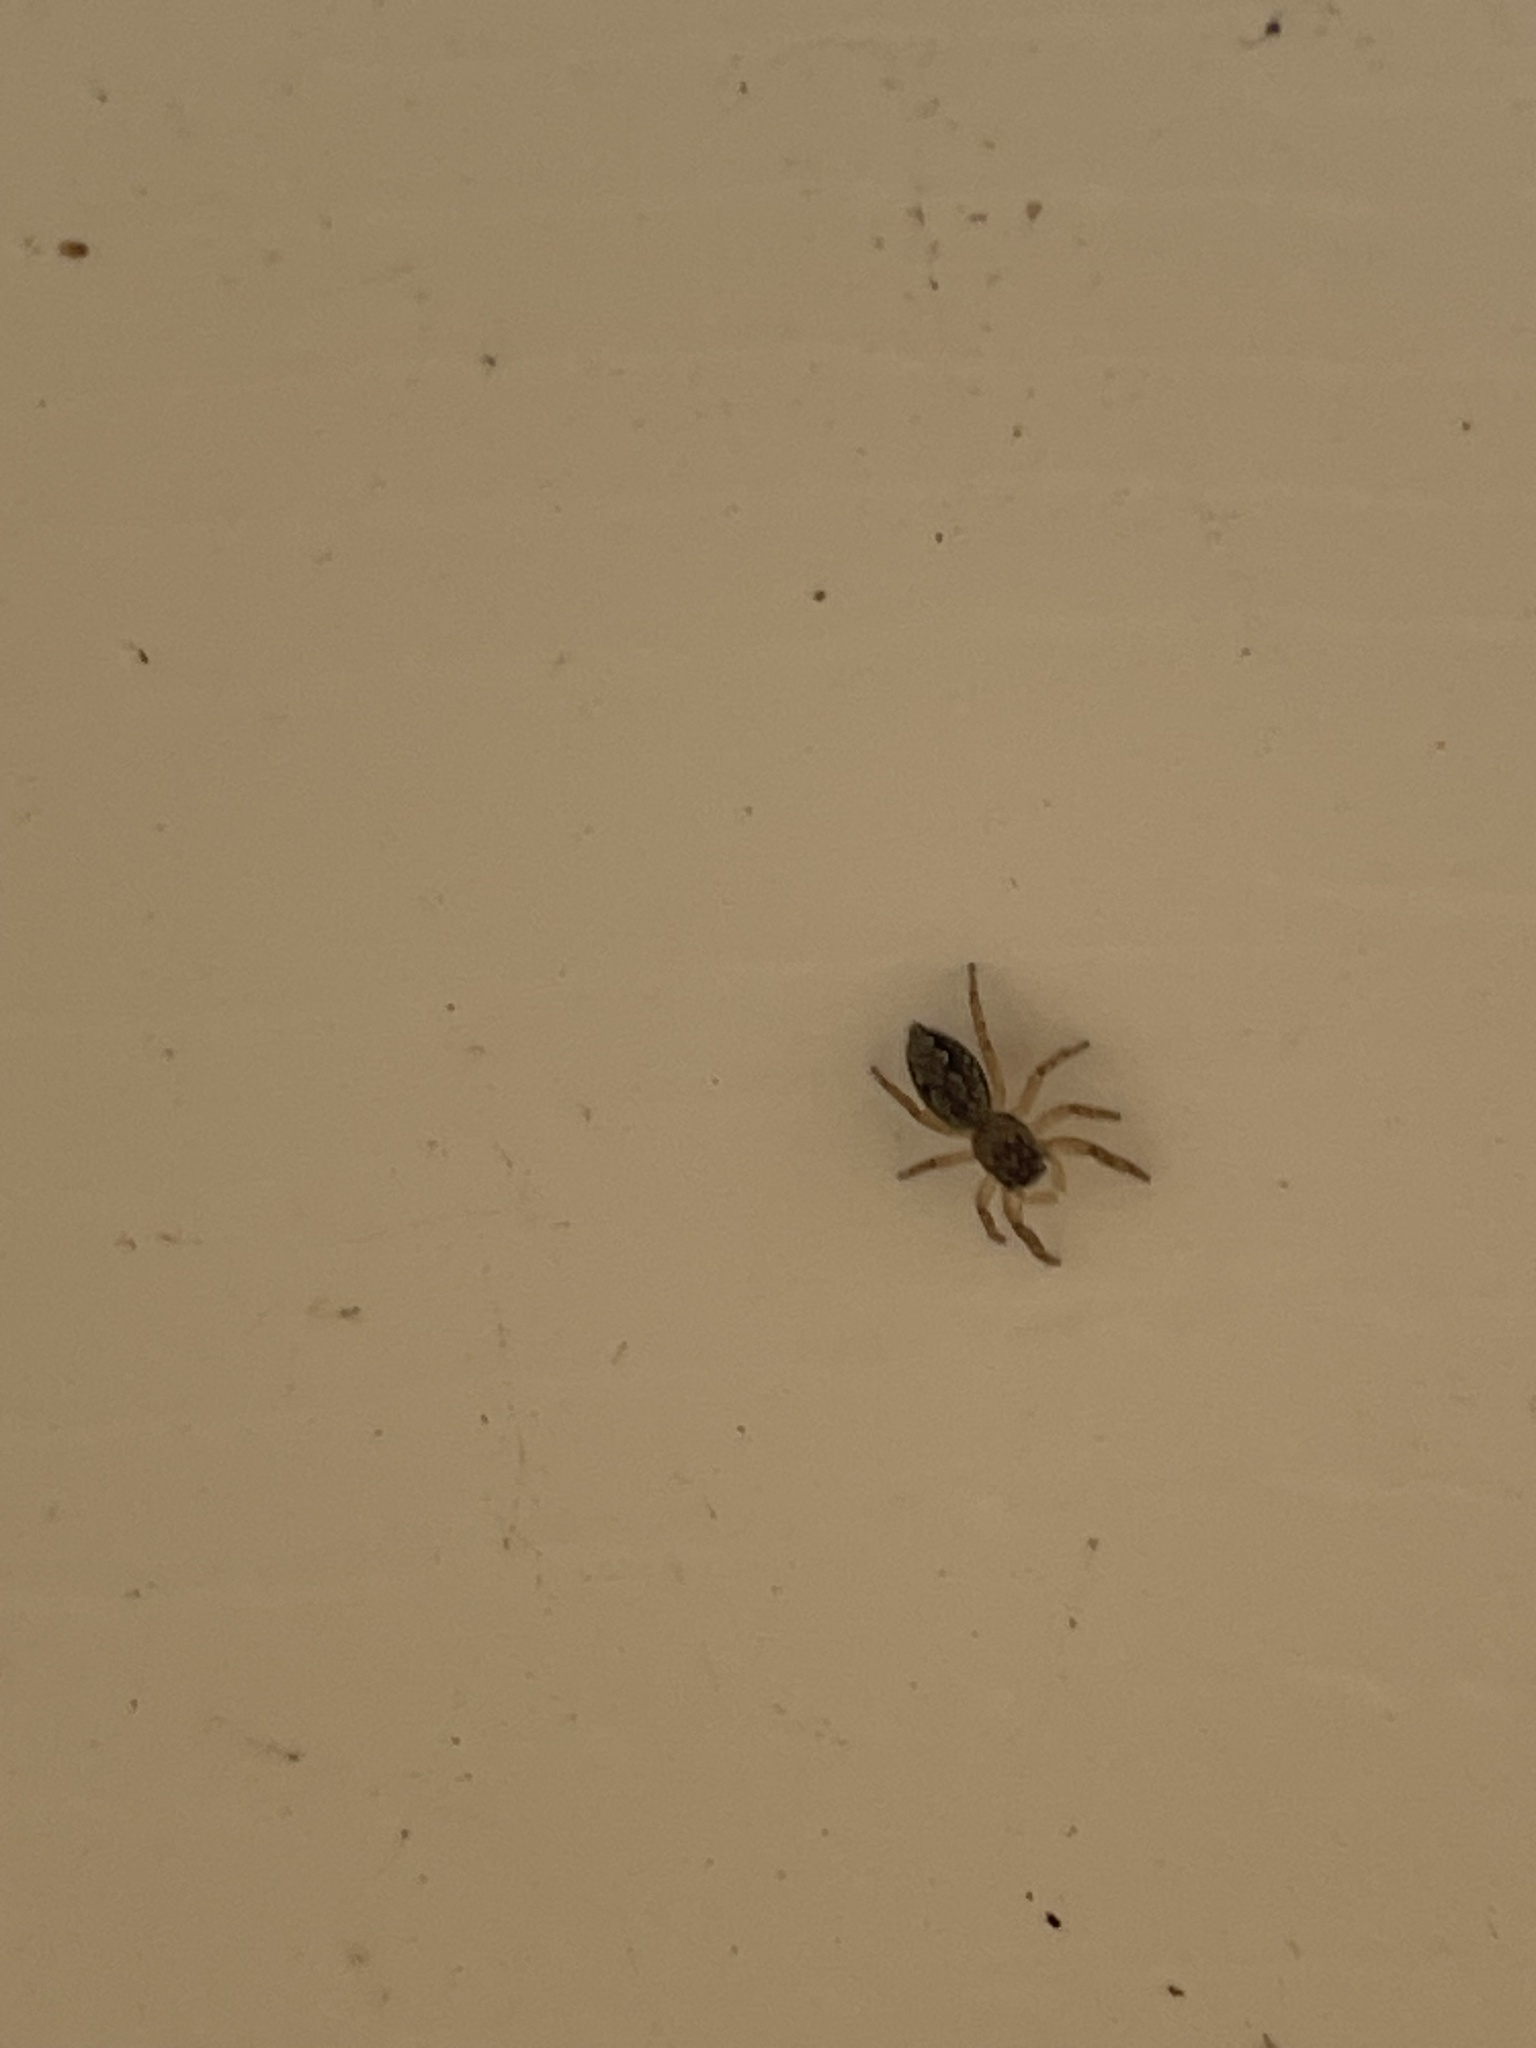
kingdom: Animalia
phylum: Arthropoda
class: Arachnida
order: Araneae
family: Salticidae
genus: Platycryptus
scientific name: Platycryptus undatus
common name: Tan jumping spider
